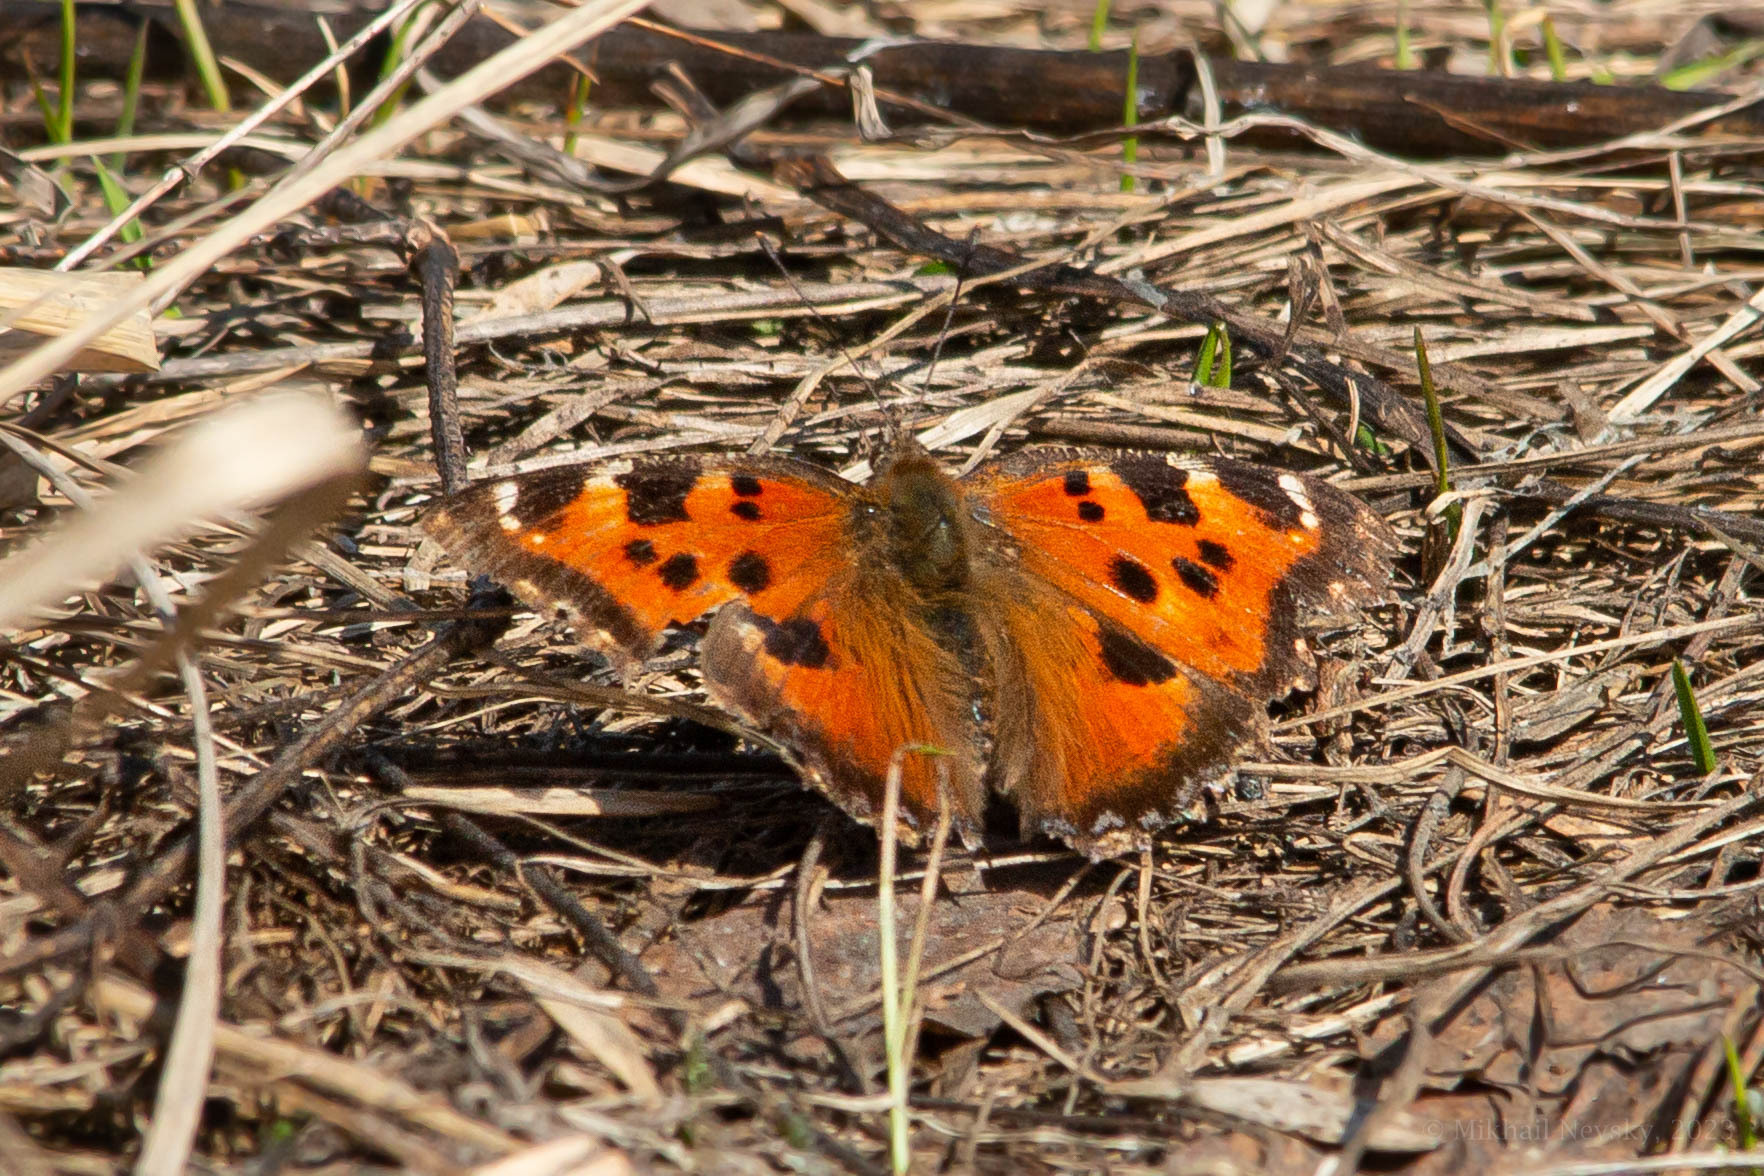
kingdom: Animalia
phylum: Arthropoda
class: Insecta
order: Lepidoptera
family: Nymphalidae
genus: Nymphalis
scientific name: Nymphalis xanthomelas
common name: Scarce tortoiseshell
